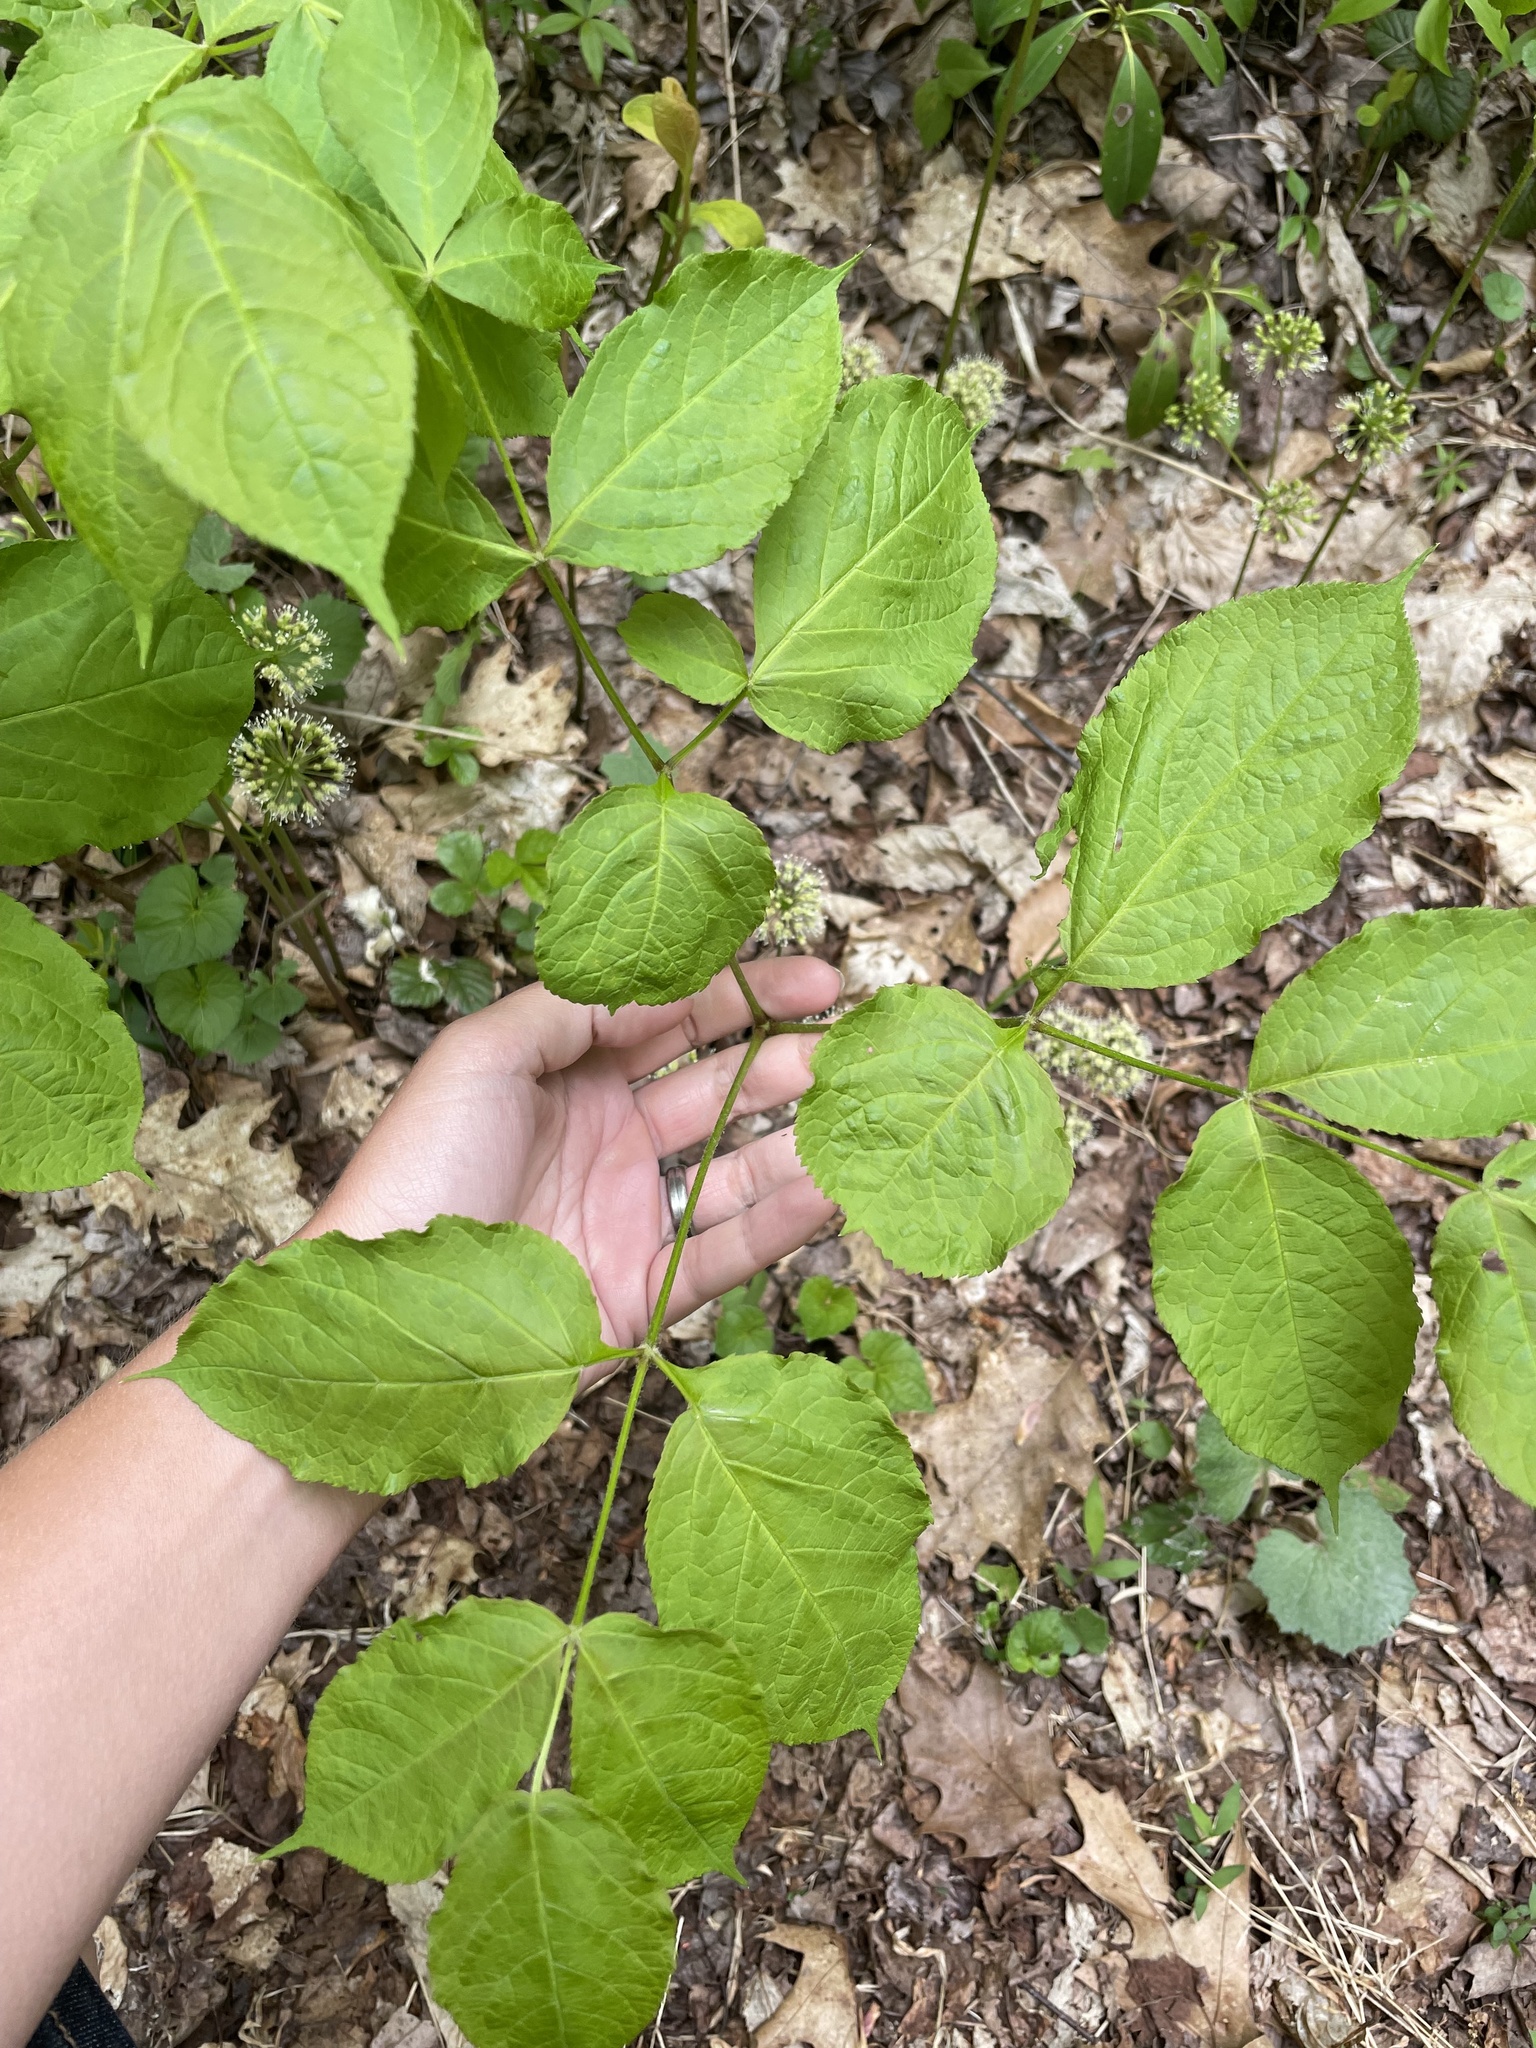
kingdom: Plantae
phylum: Tracheophyta
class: Magnoliopsida
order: Apiales
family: Araliaceae
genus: Aralia
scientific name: Aralia nudicaulis
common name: Wild sarsaparilla
